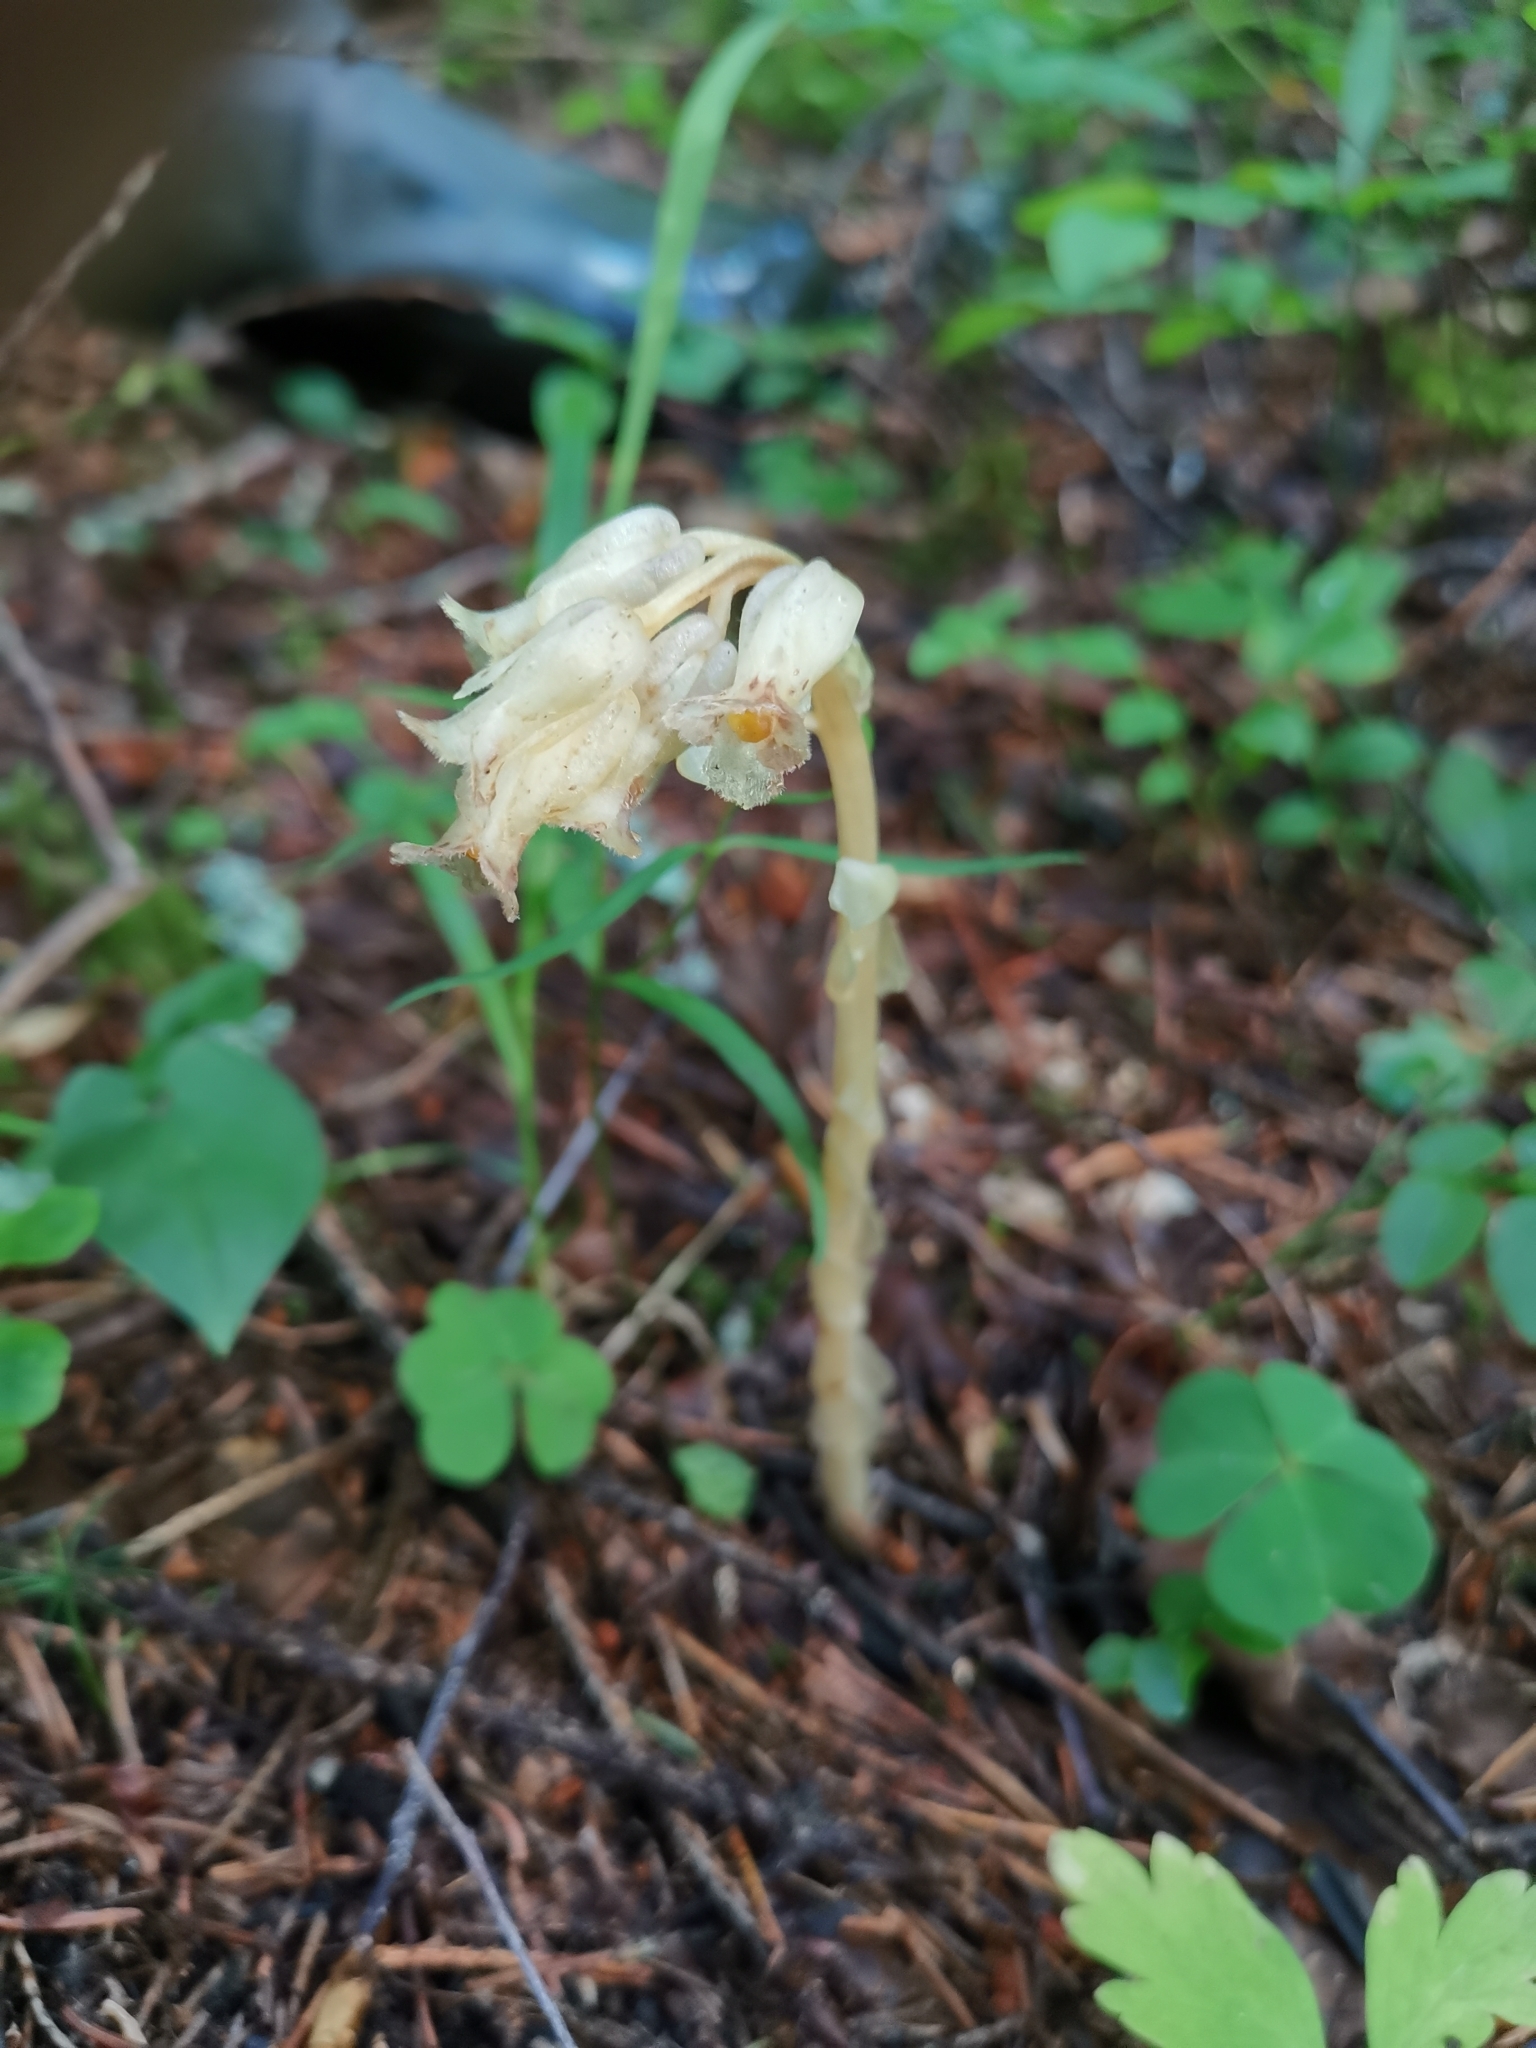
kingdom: Plantae
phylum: Tracheophyta
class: Magnoliopsida
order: Ericales
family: Ericaceae
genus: Hypopitys
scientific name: Hypopitys monotropa
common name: Yellow bird's-nest
